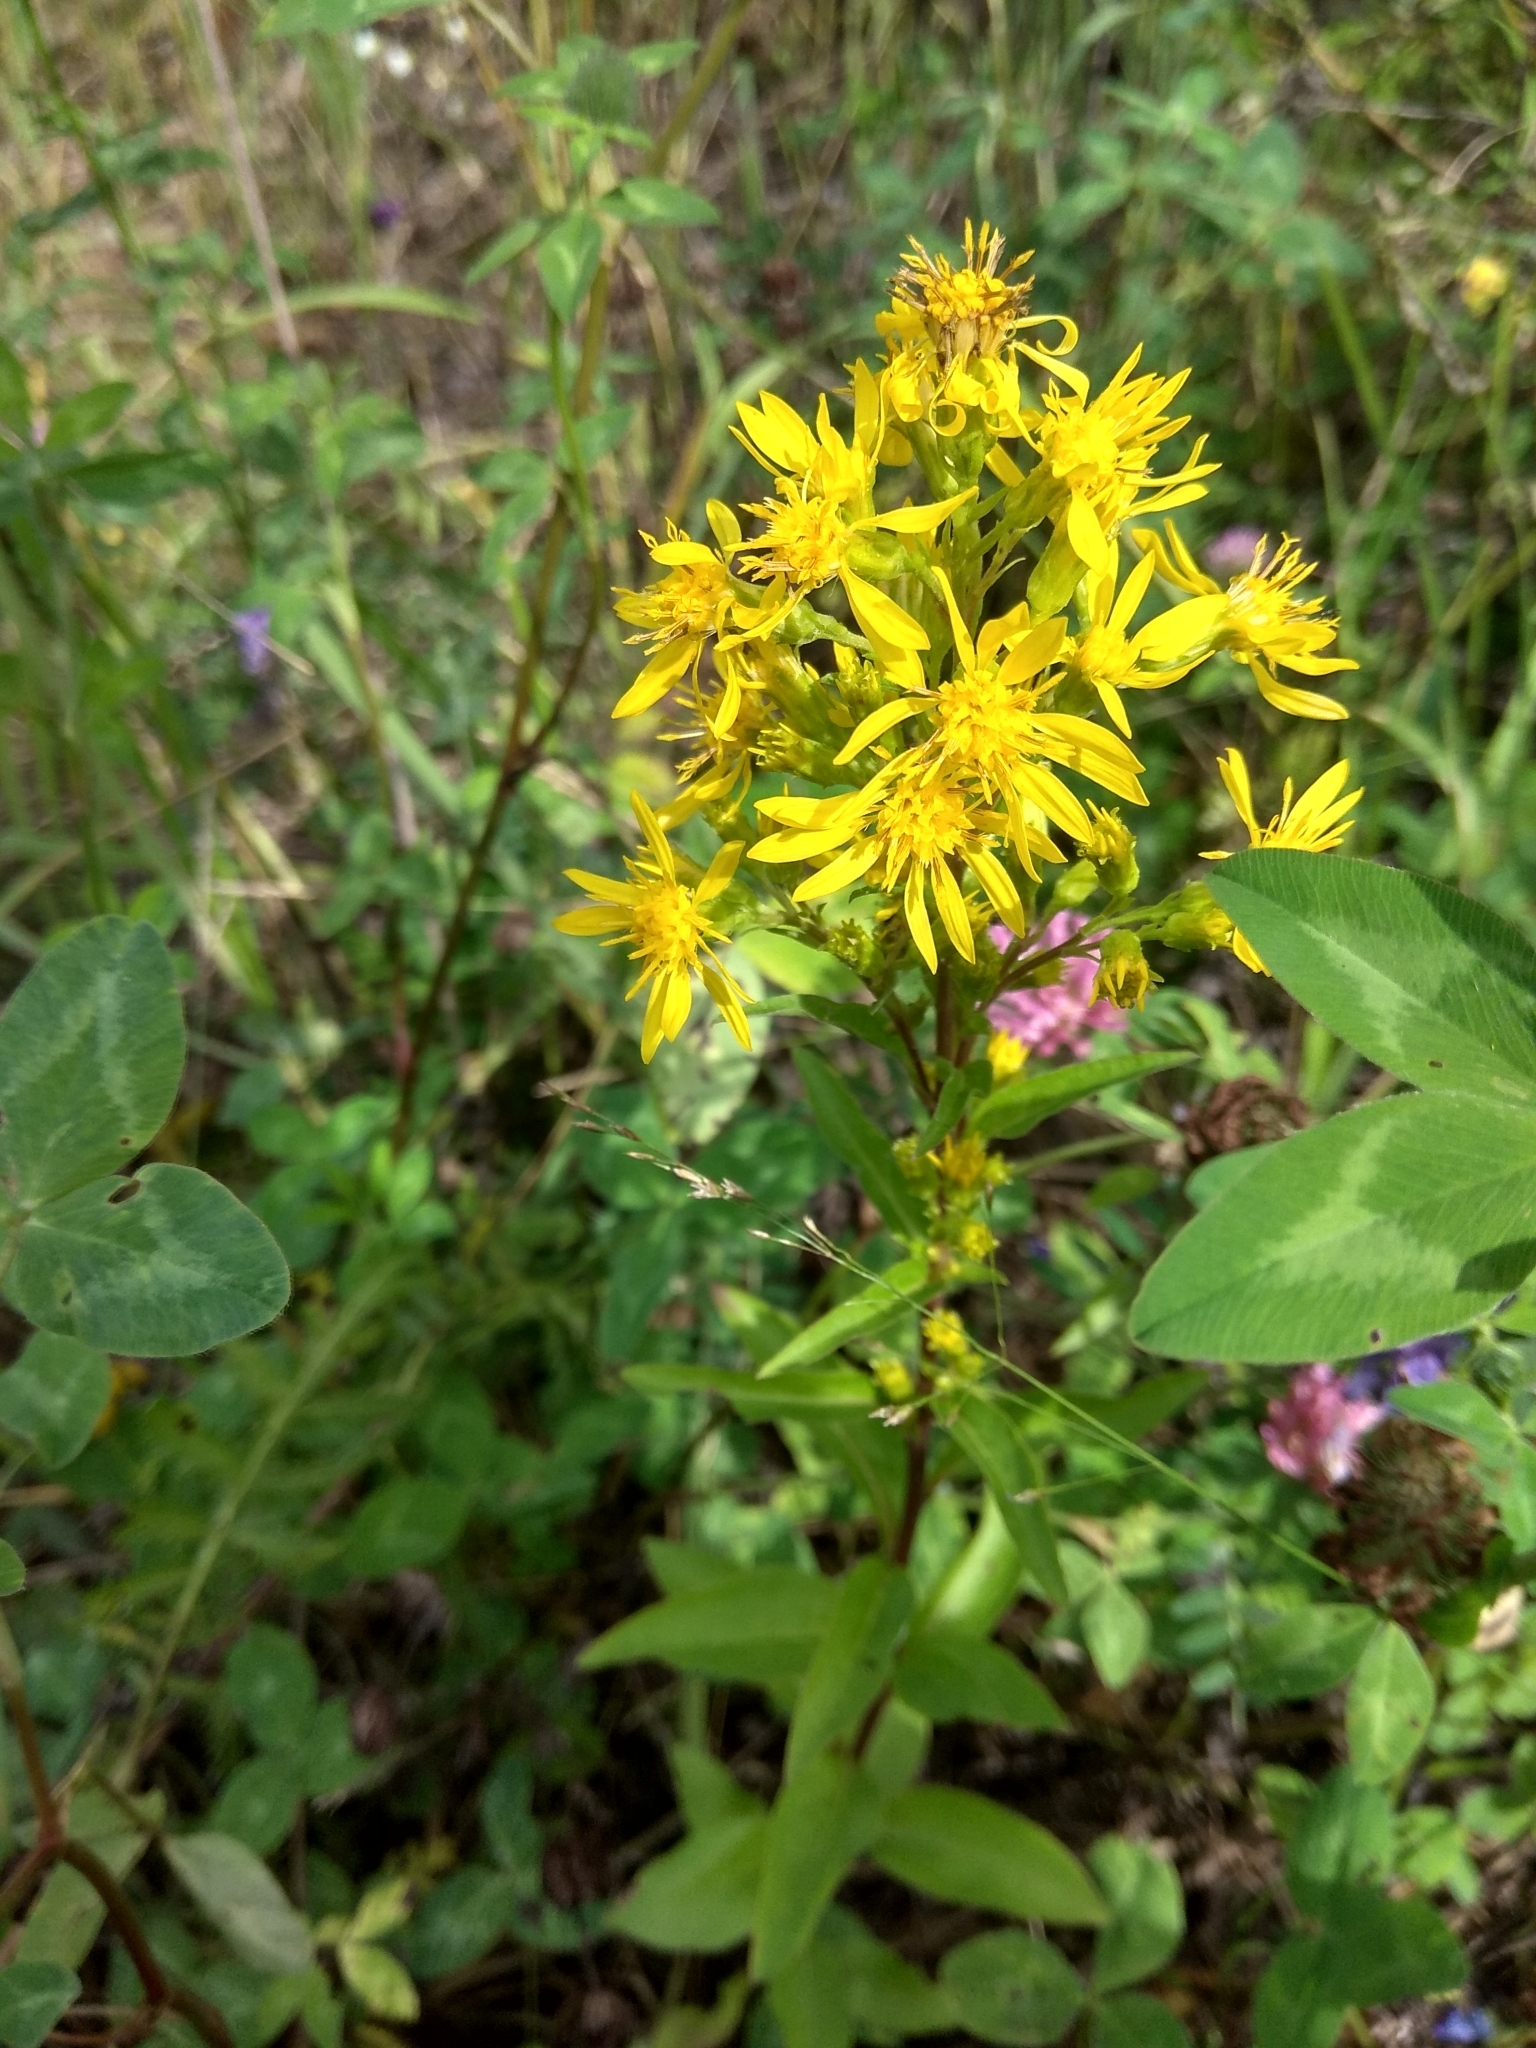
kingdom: Plantae
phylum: Tracheophyta
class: Magnoliopsida
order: Asterales
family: Asteraceae
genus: Solidago
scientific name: Solidago virgaurea
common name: Goldenrod
